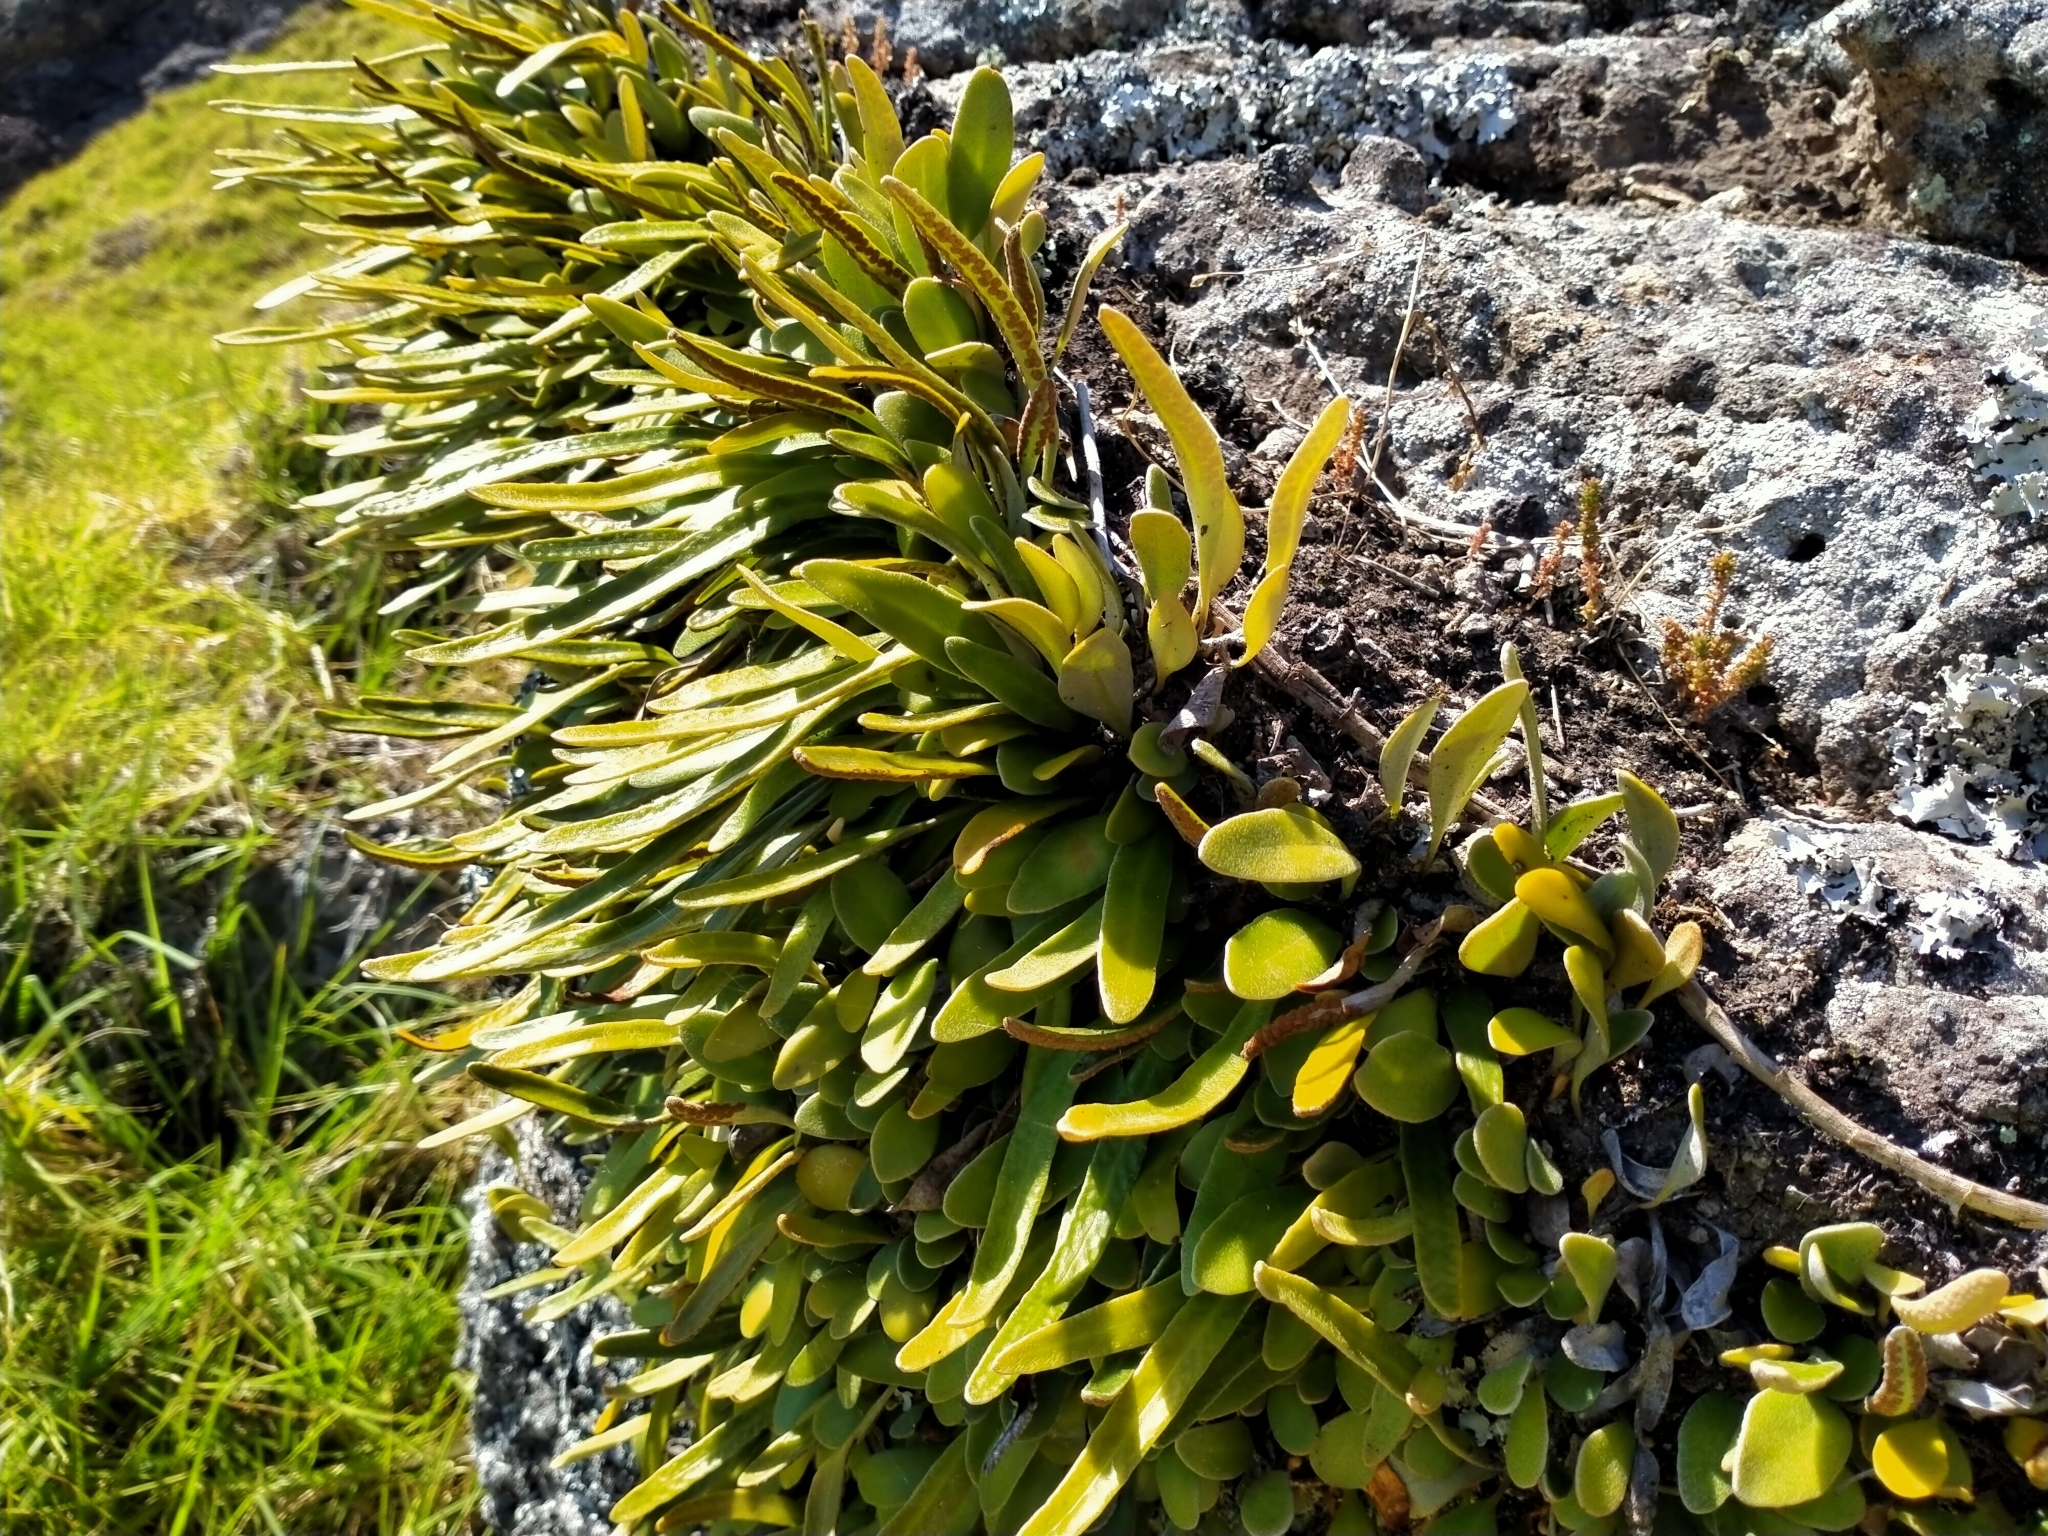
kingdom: Plantae
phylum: Tracheophyta
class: Polypodiopsida
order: Polypodiales
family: Polypodiaceae
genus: Pyrrosia
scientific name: Pyrrosia eleagnifolia
